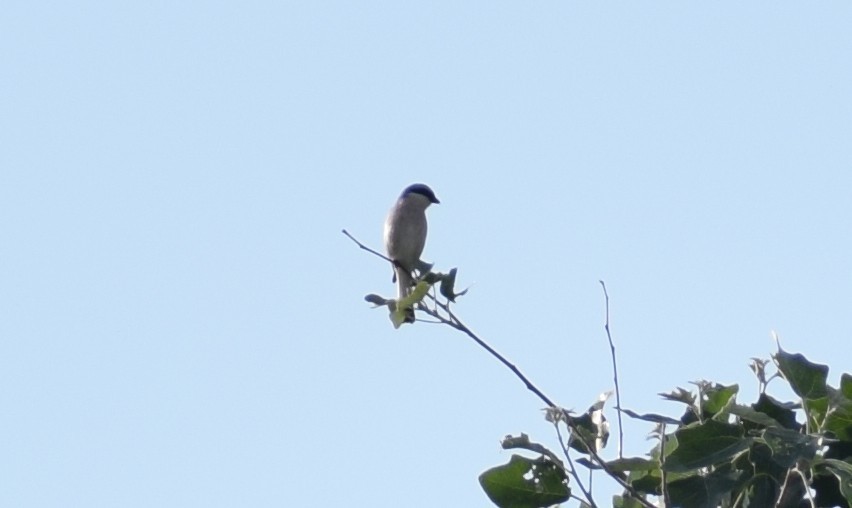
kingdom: Animalia
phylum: Chordata
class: Aves
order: Passeriformes
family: Laniidae
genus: Lanius
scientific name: Lanius collurio
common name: Red-backed shrike
